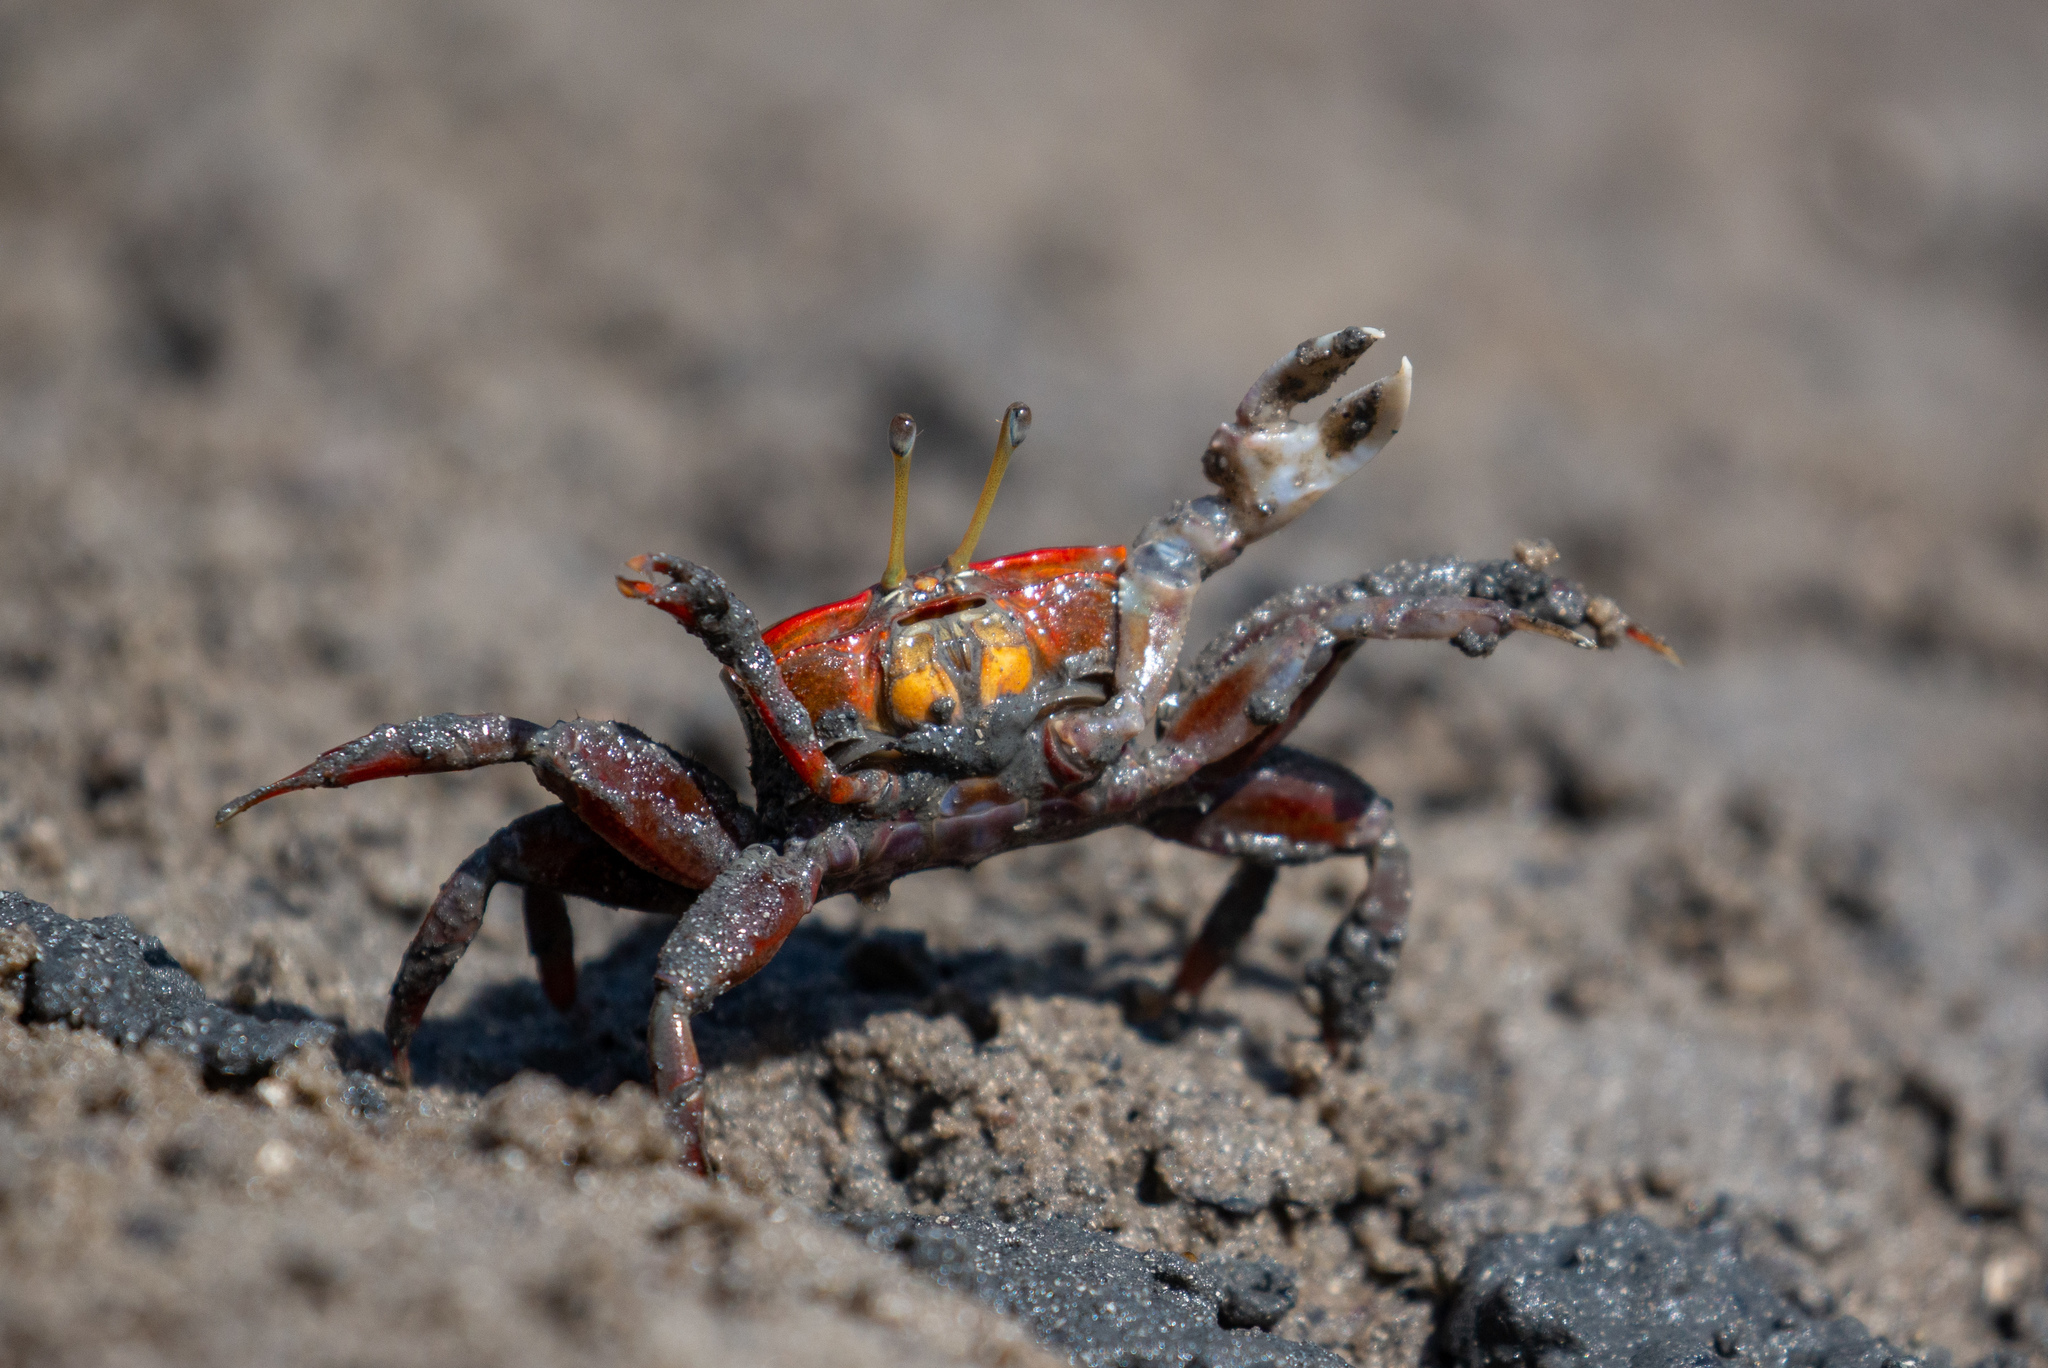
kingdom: Animalia
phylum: Arthropoda
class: Malacostraca
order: Decapoda
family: Ocypodidae
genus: Uca
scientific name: Uca maracoani
